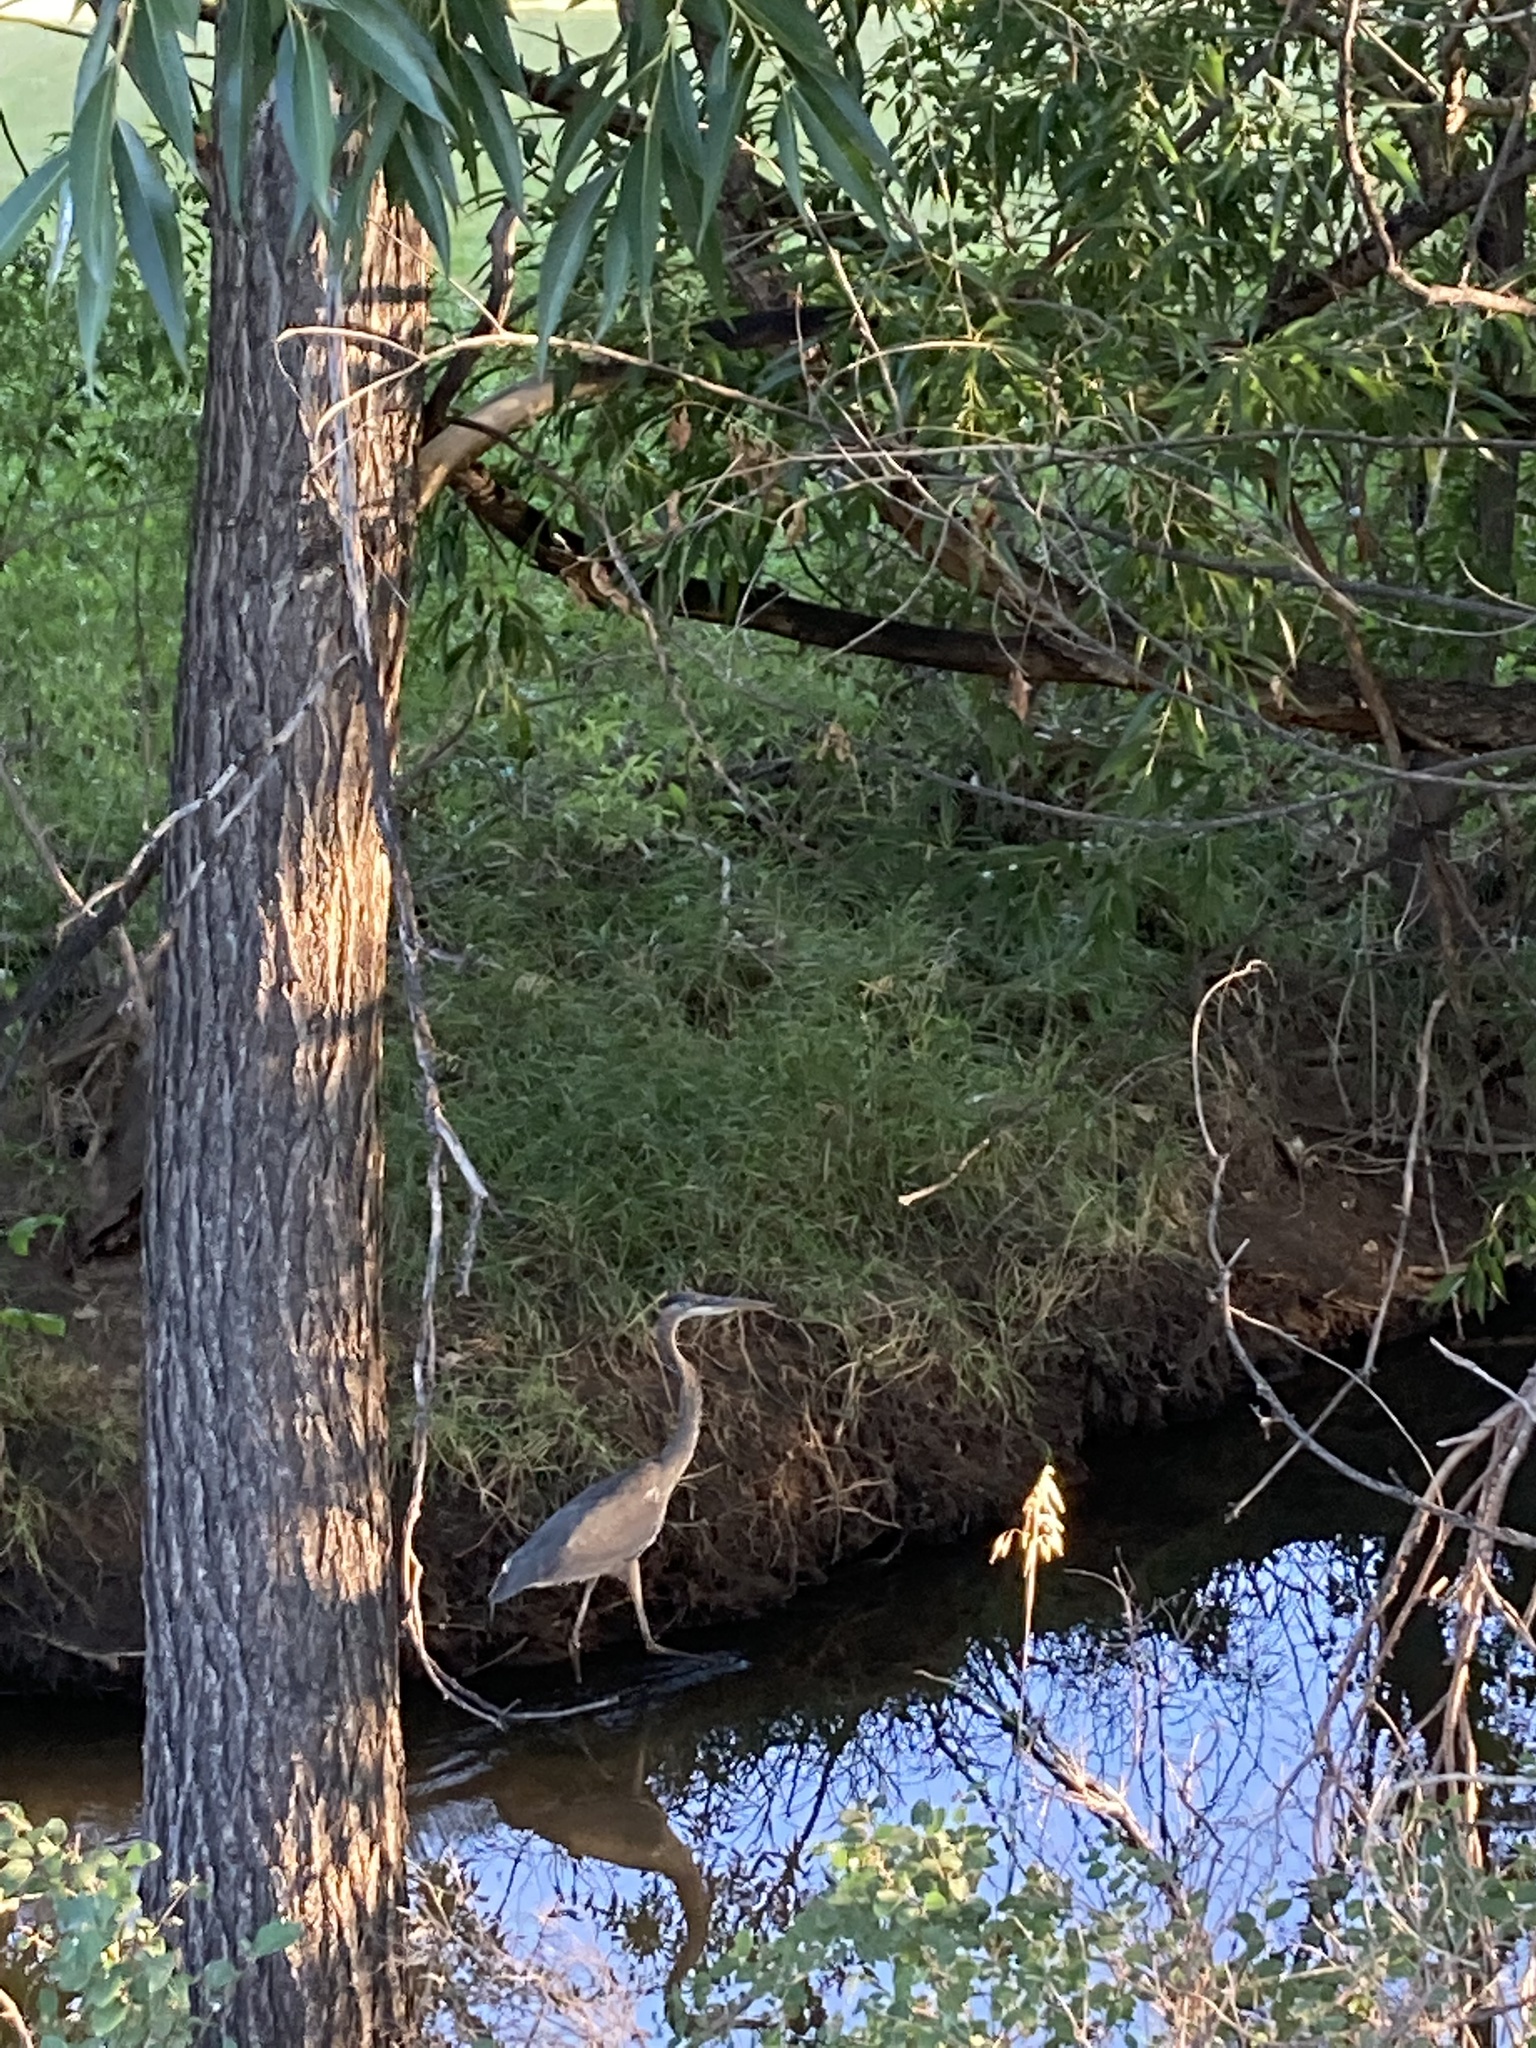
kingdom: Animalia
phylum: Chordata
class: Aves
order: Pelecaniformes
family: Ardeidae
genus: Ardea
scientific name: Ardea herodias
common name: Great blue heron
